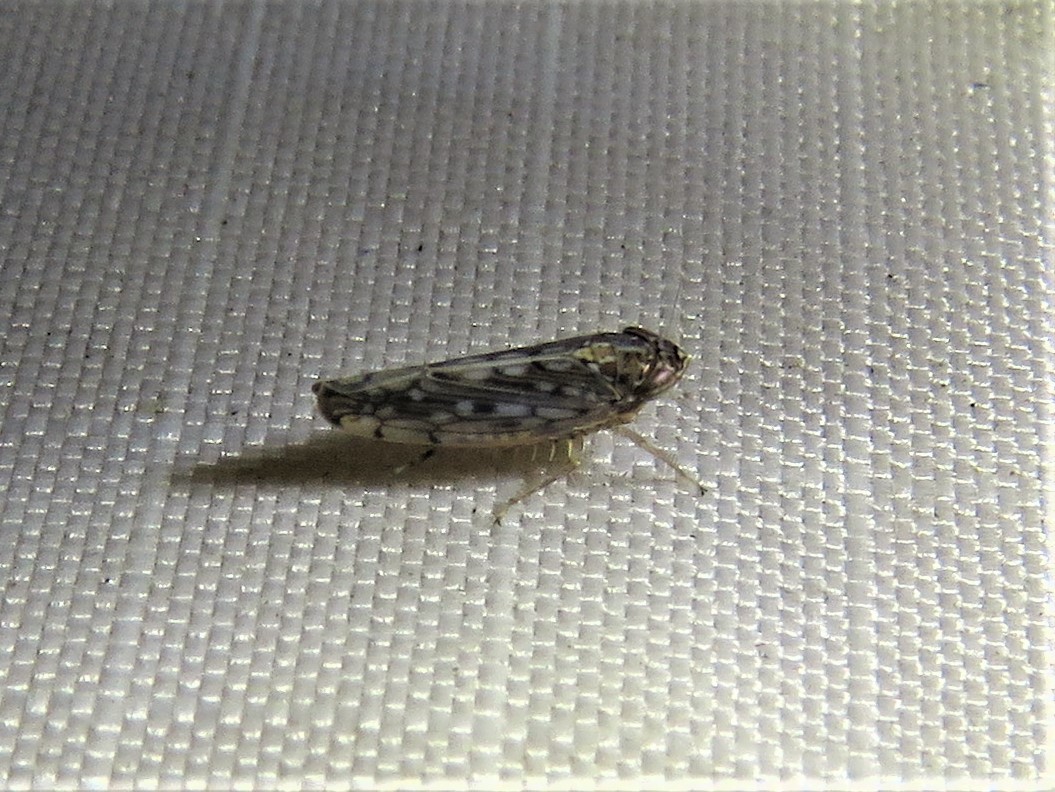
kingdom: Animalia
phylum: Arthropoda
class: Insecta
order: Hemiptera
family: Cicadellidae
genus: Osbornellus
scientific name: Osbornellus clarus
